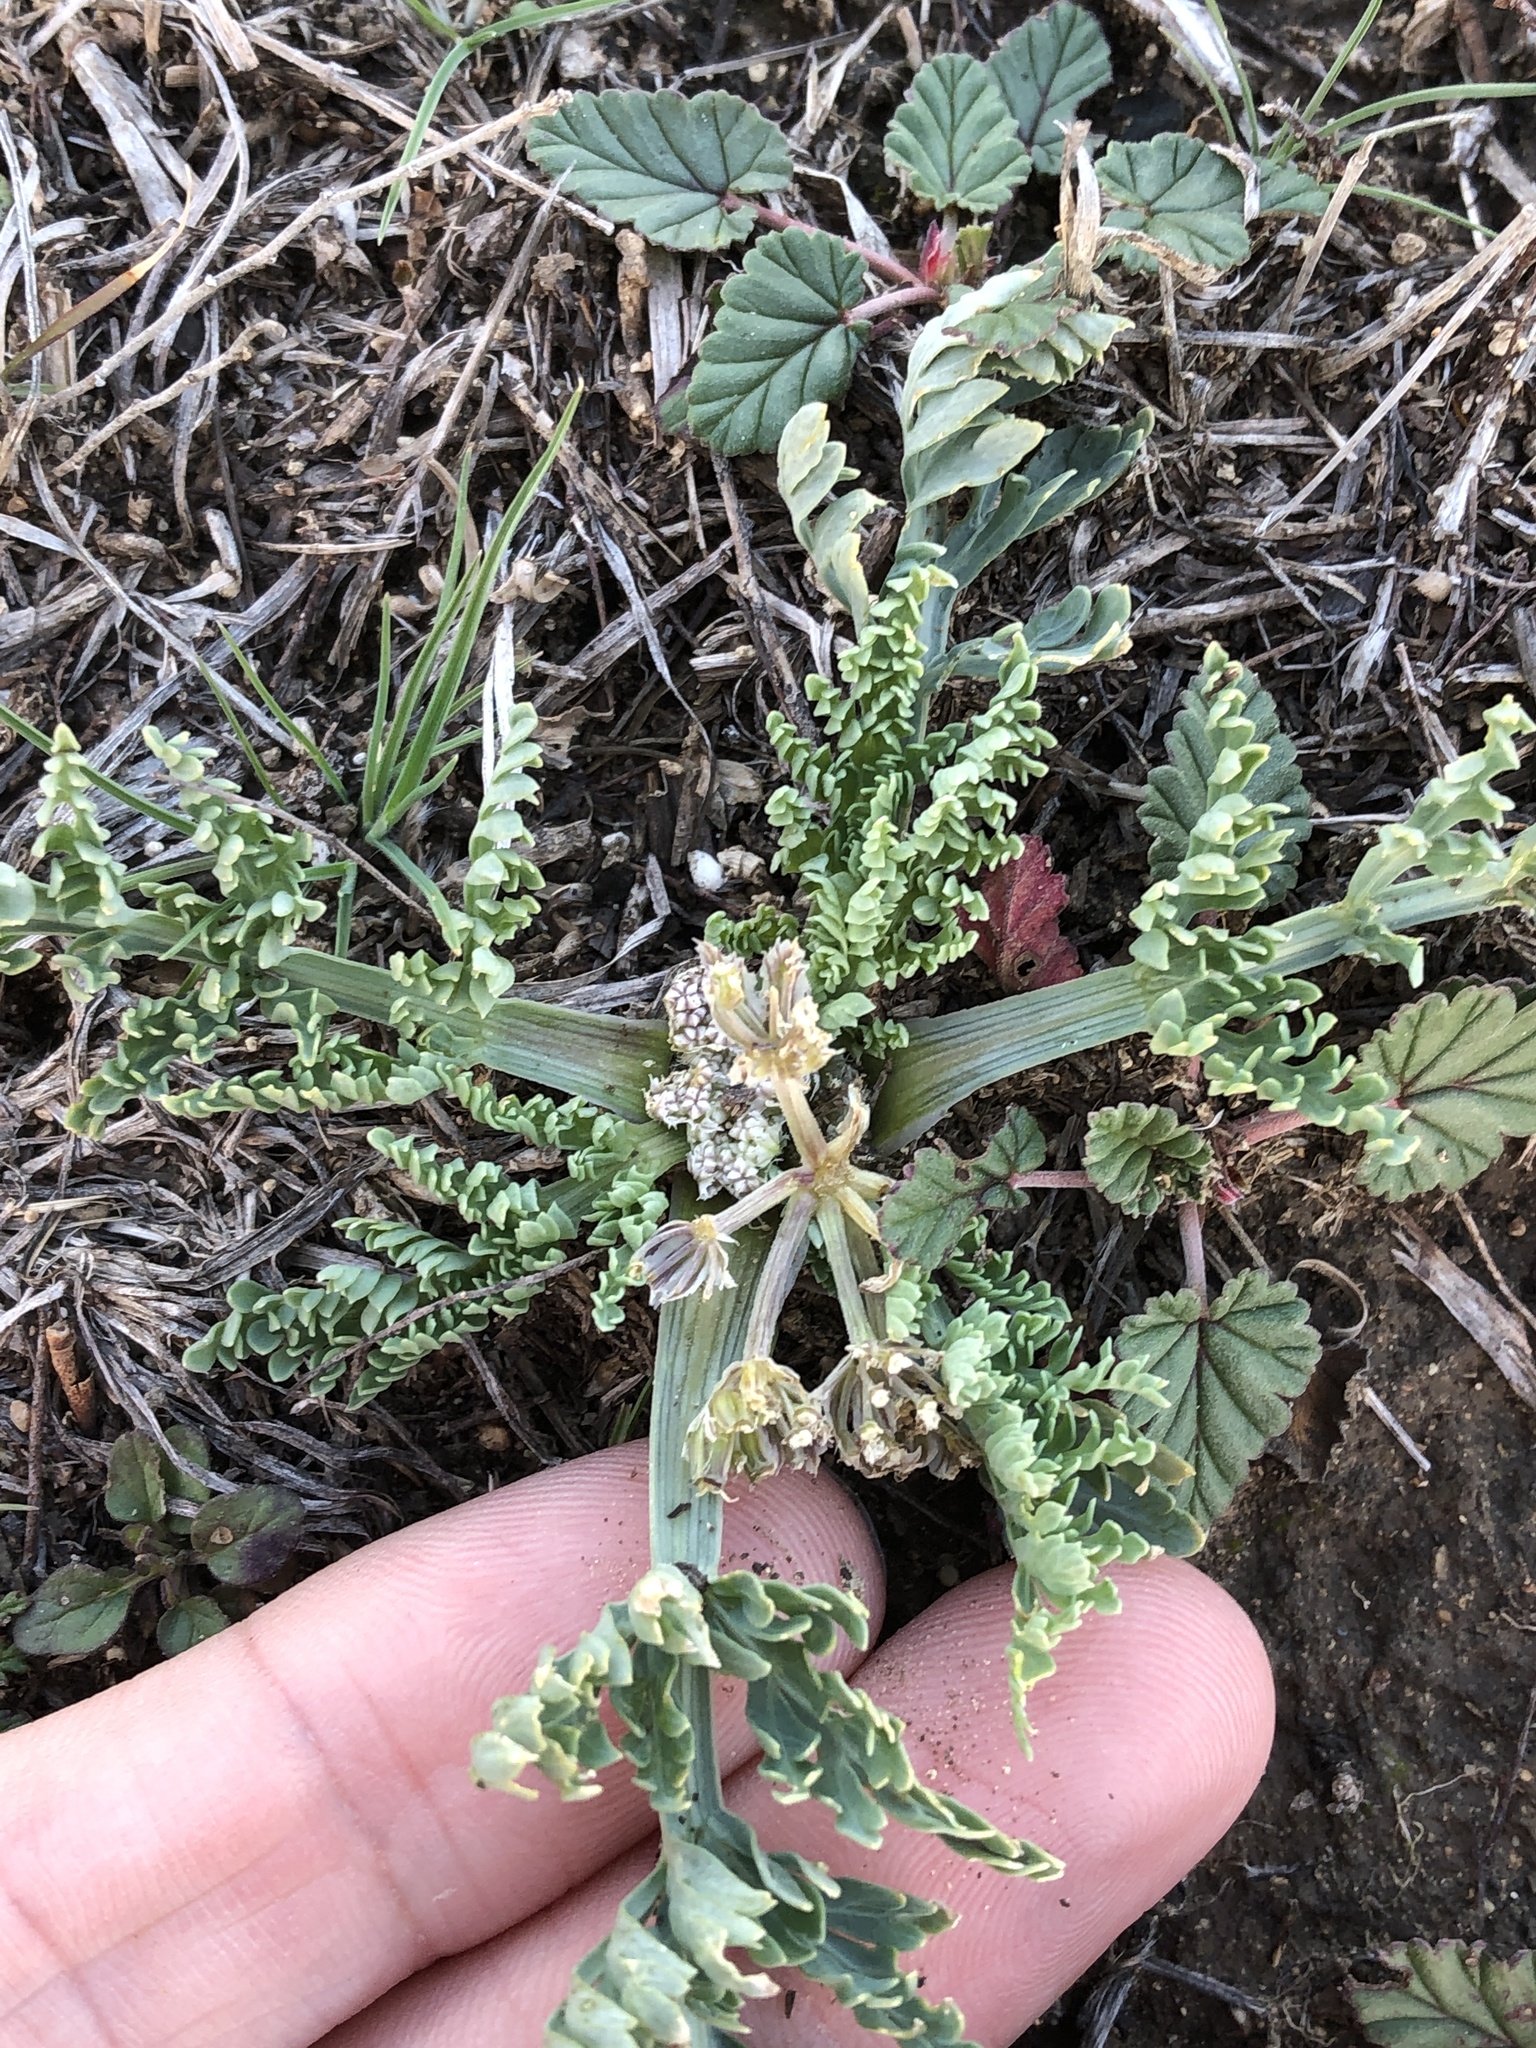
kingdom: Plantae
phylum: Tracheophyta
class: Magnoliopsida
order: Apiales
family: Apiaceae
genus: Vesper
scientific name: Vesper macrorhizus
